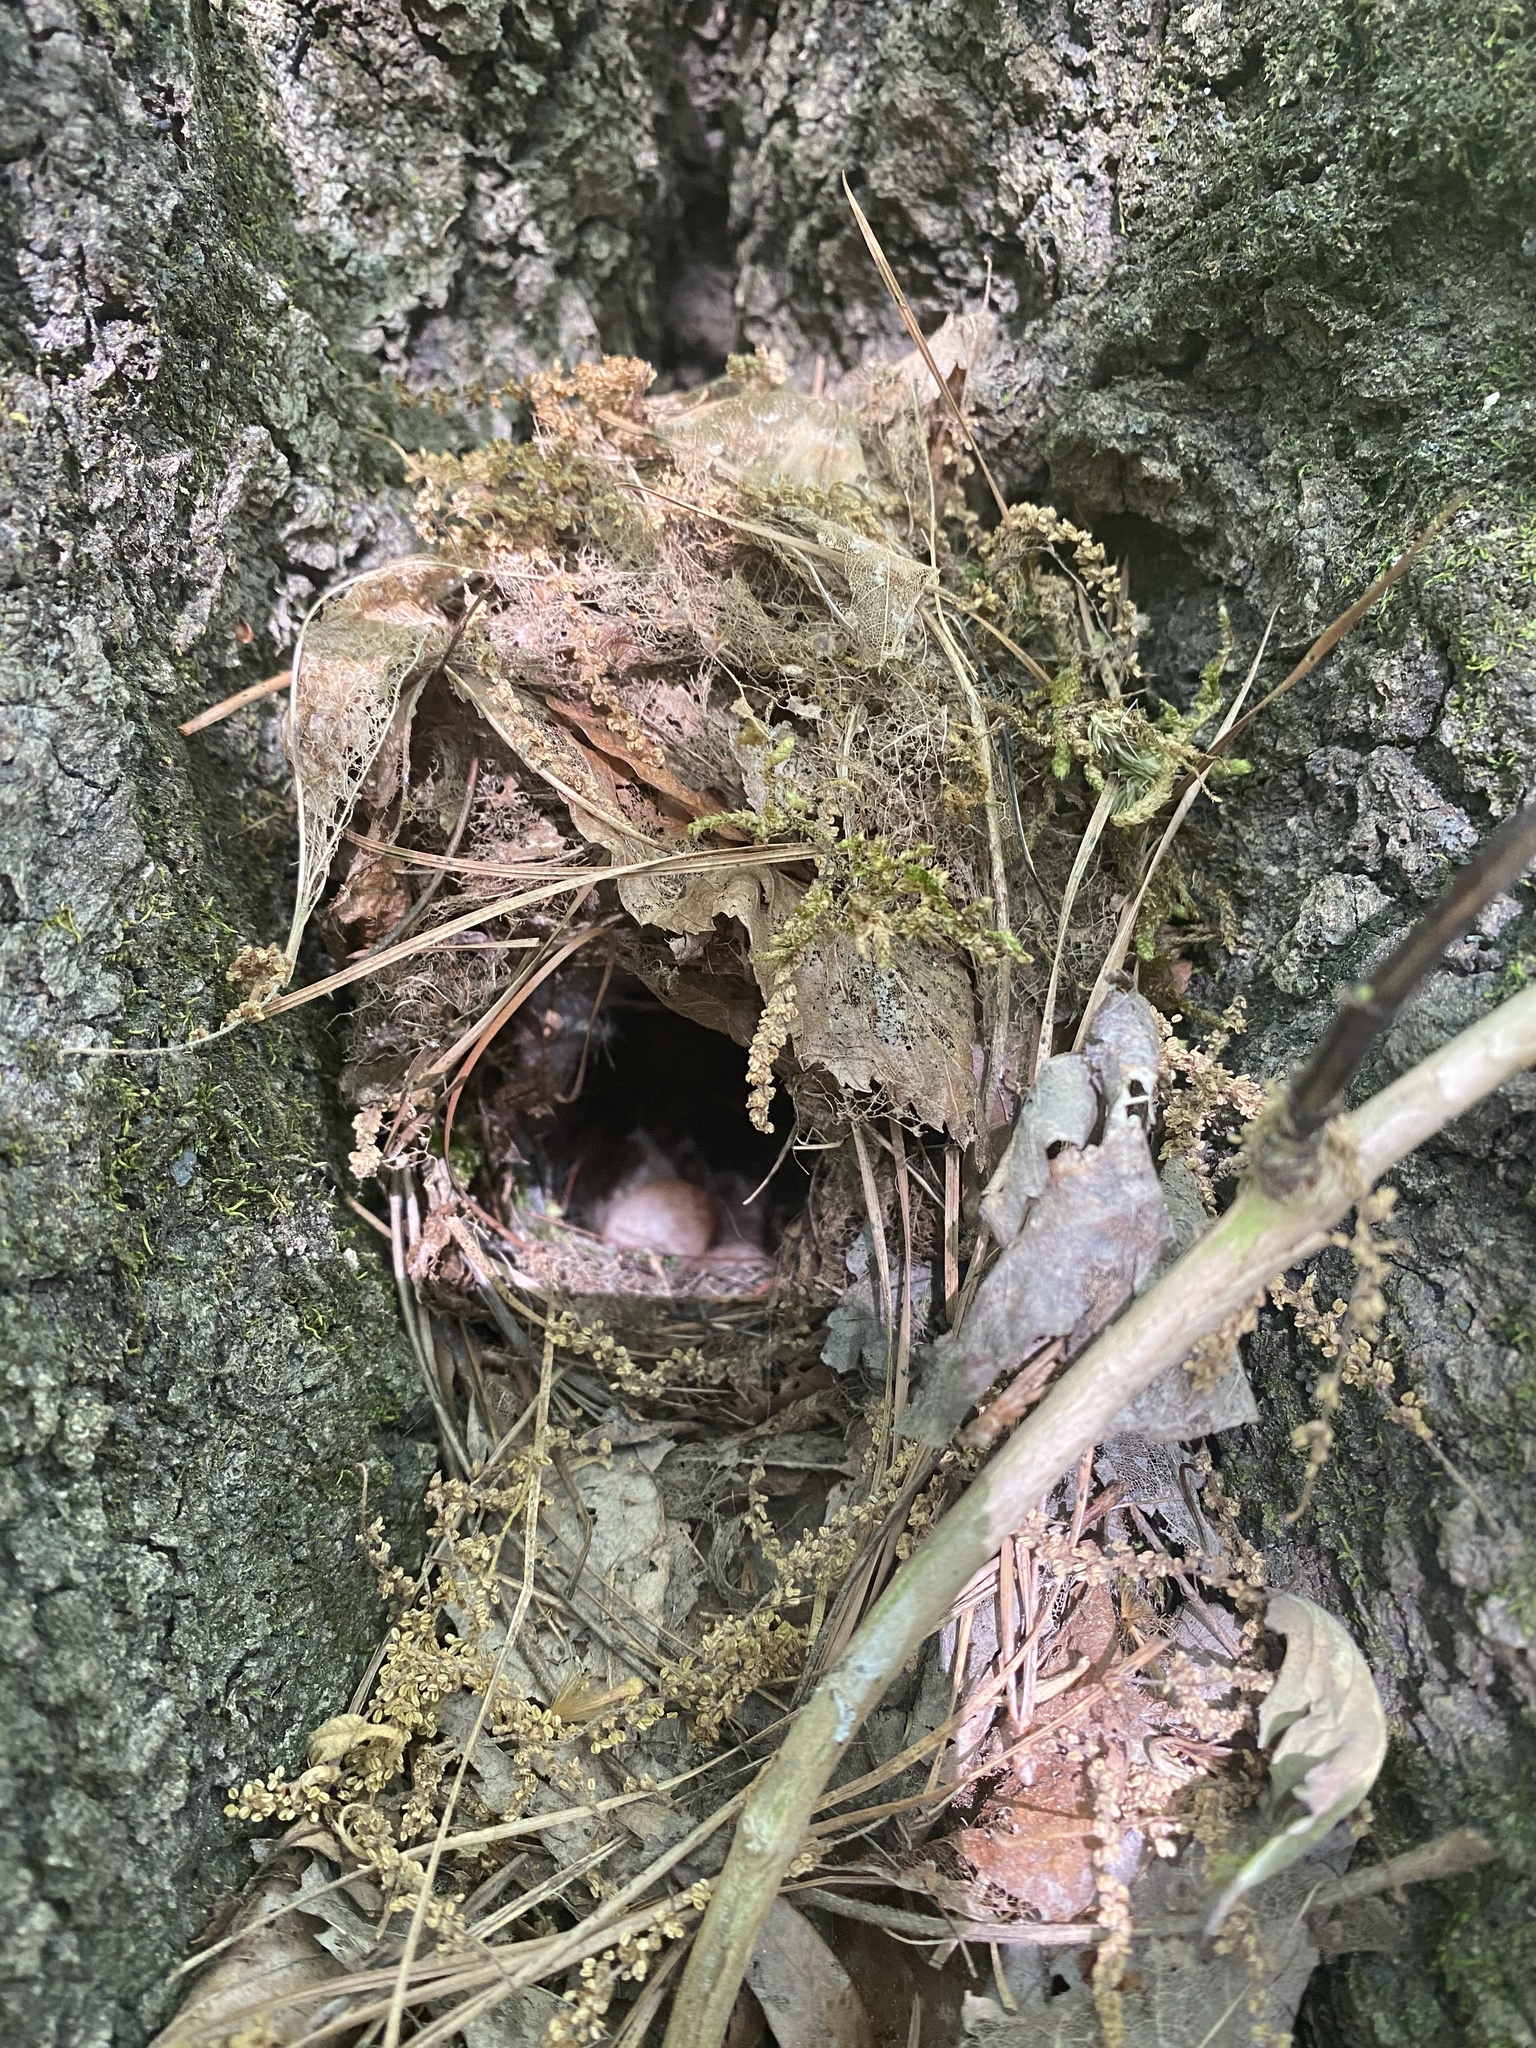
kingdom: Animalia
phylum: Chordata
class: Aves
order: Passeriformes
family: Troglodytidae
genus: Thryothorus
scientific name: Thryothorus ludovicianus
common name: Carolina wren
